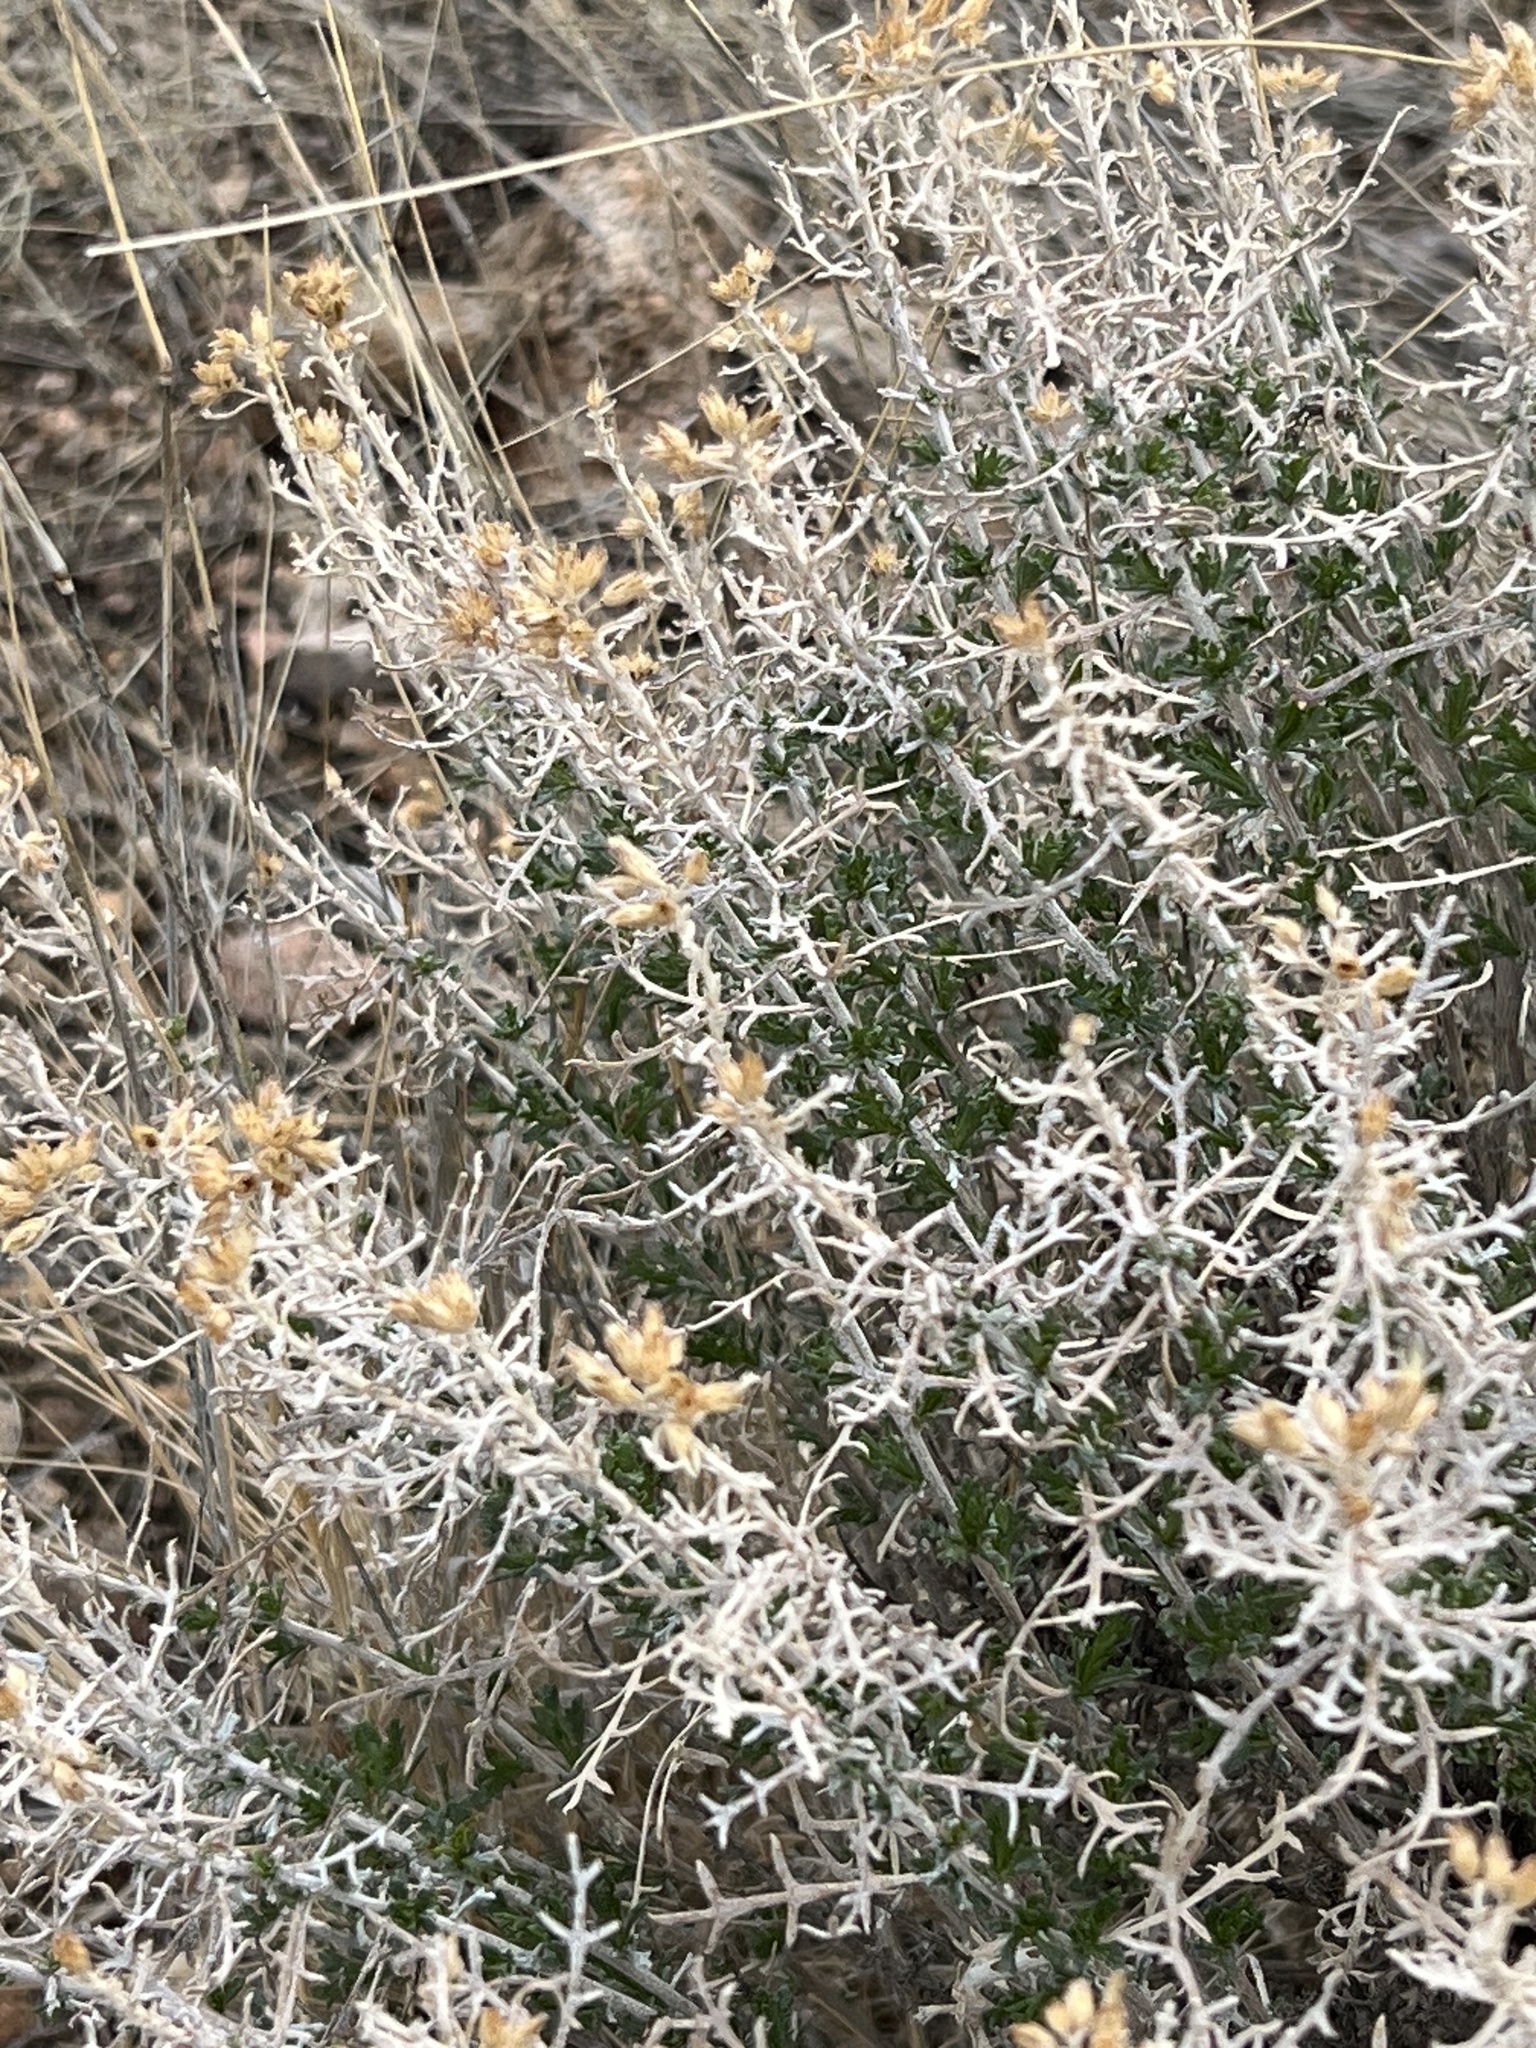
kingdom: Plantae
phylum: Tracheophyta
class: Magnoliopsida
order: Asterales
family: Asteraceae
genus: Isocoma
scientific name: Isocoma tenuisecta
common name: Burroweed
